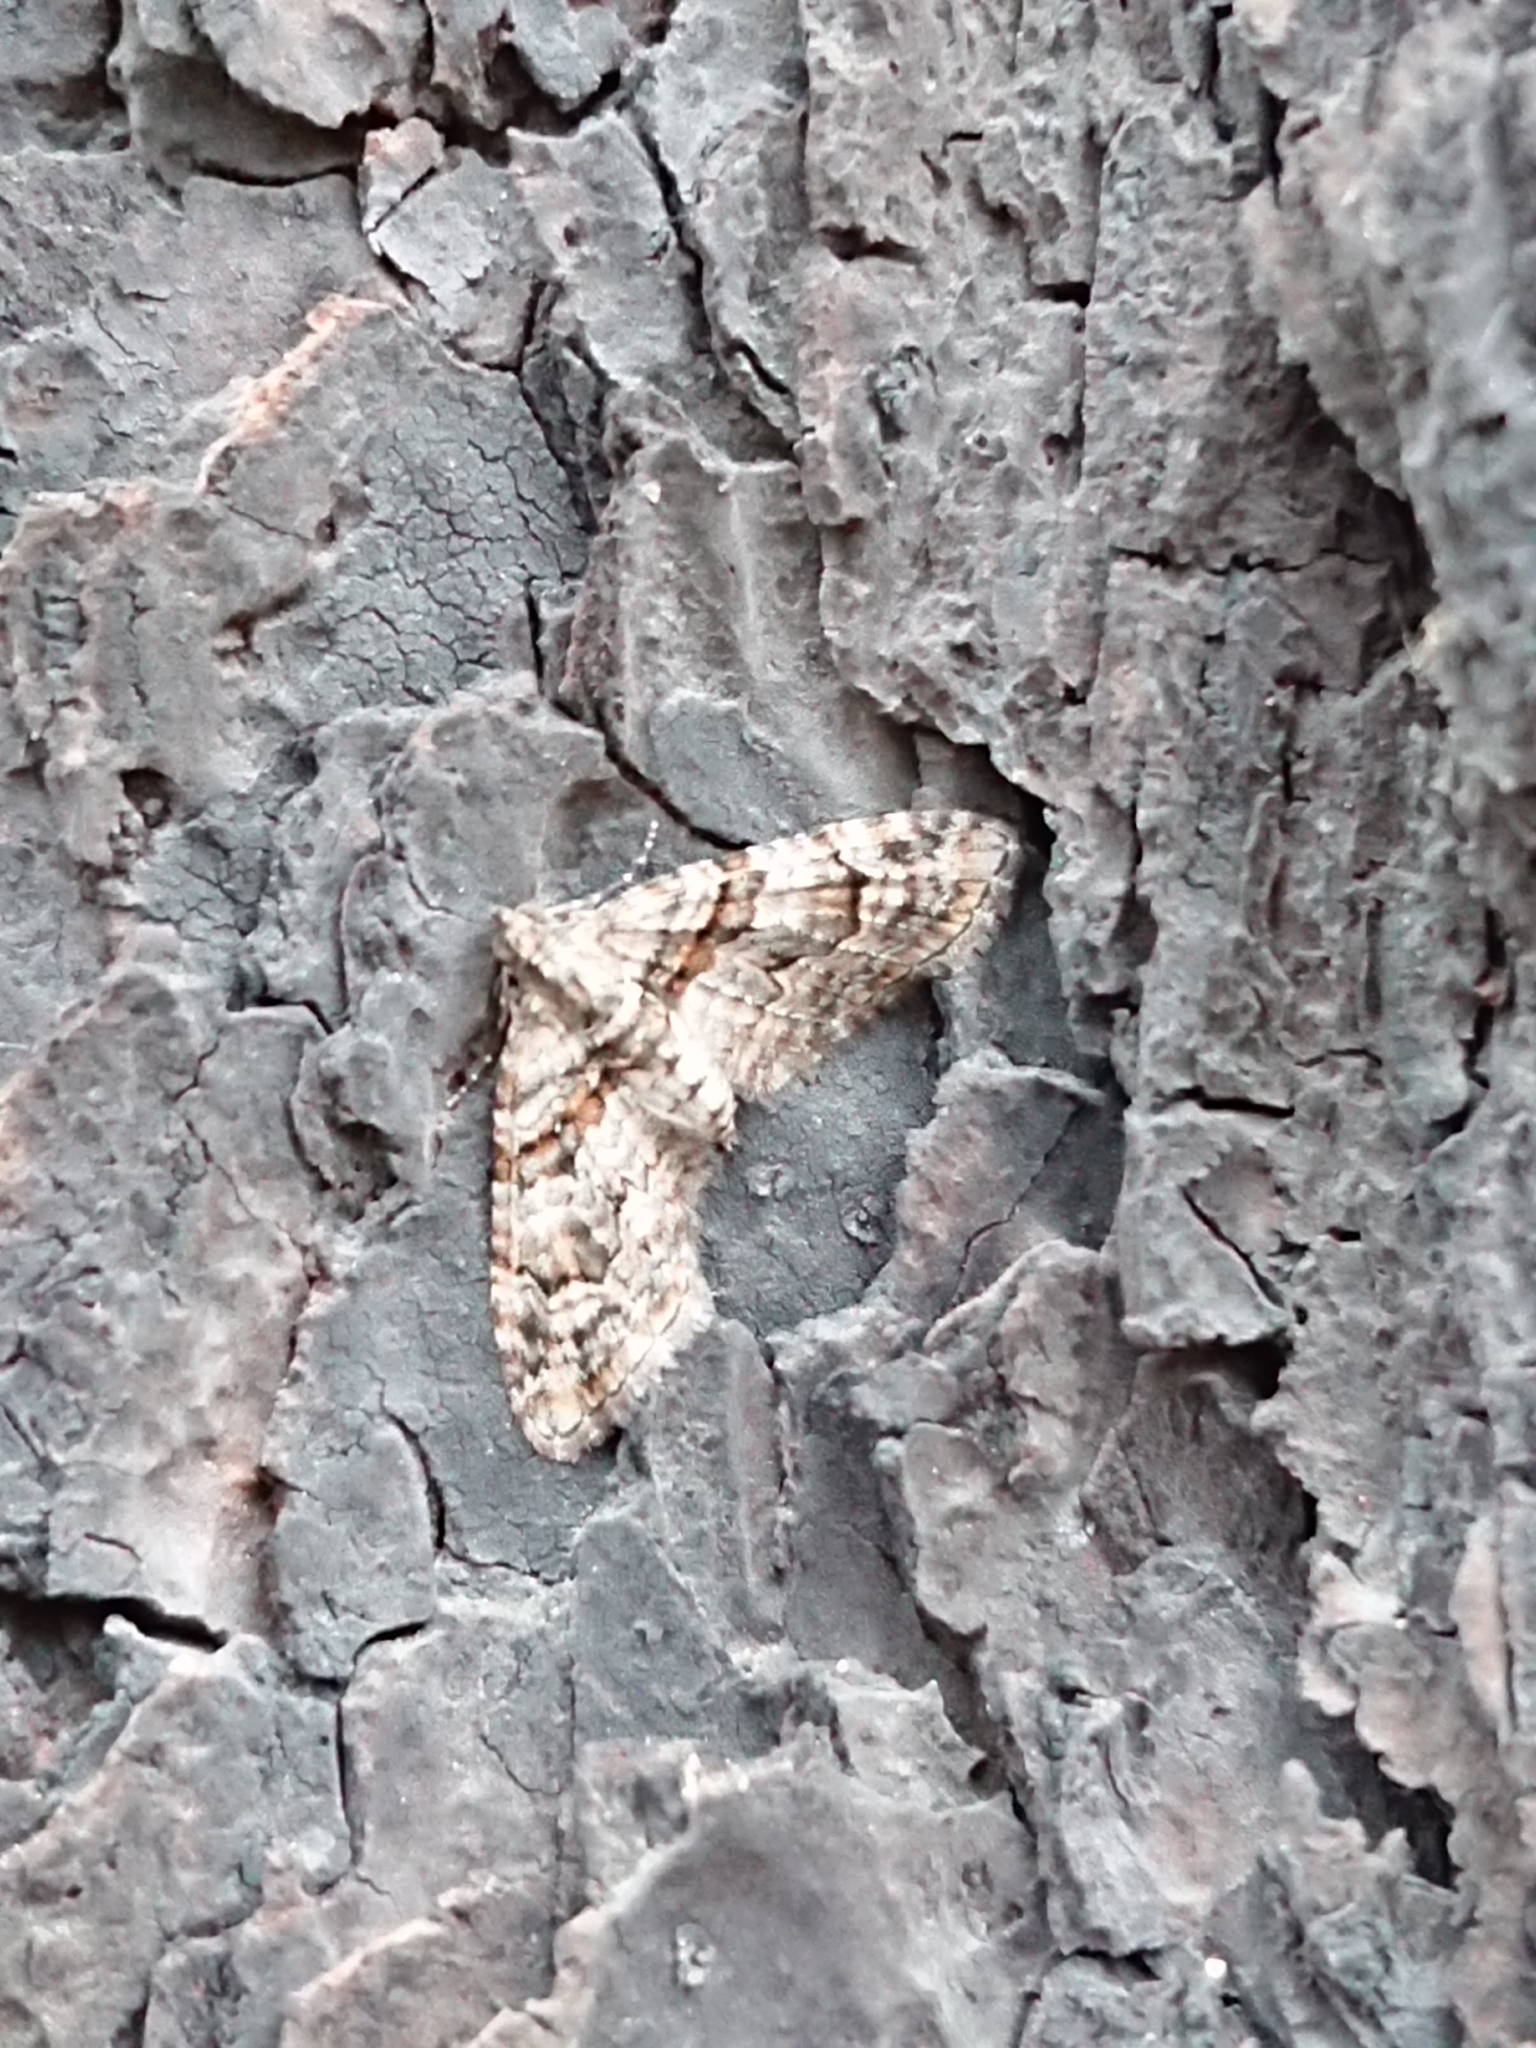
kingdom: Animalia
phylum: Arthropoda
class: Insecta
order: Lepidoptera
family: Geometridae
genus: Phrissogonus
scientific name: Phrissogonus laticostata
